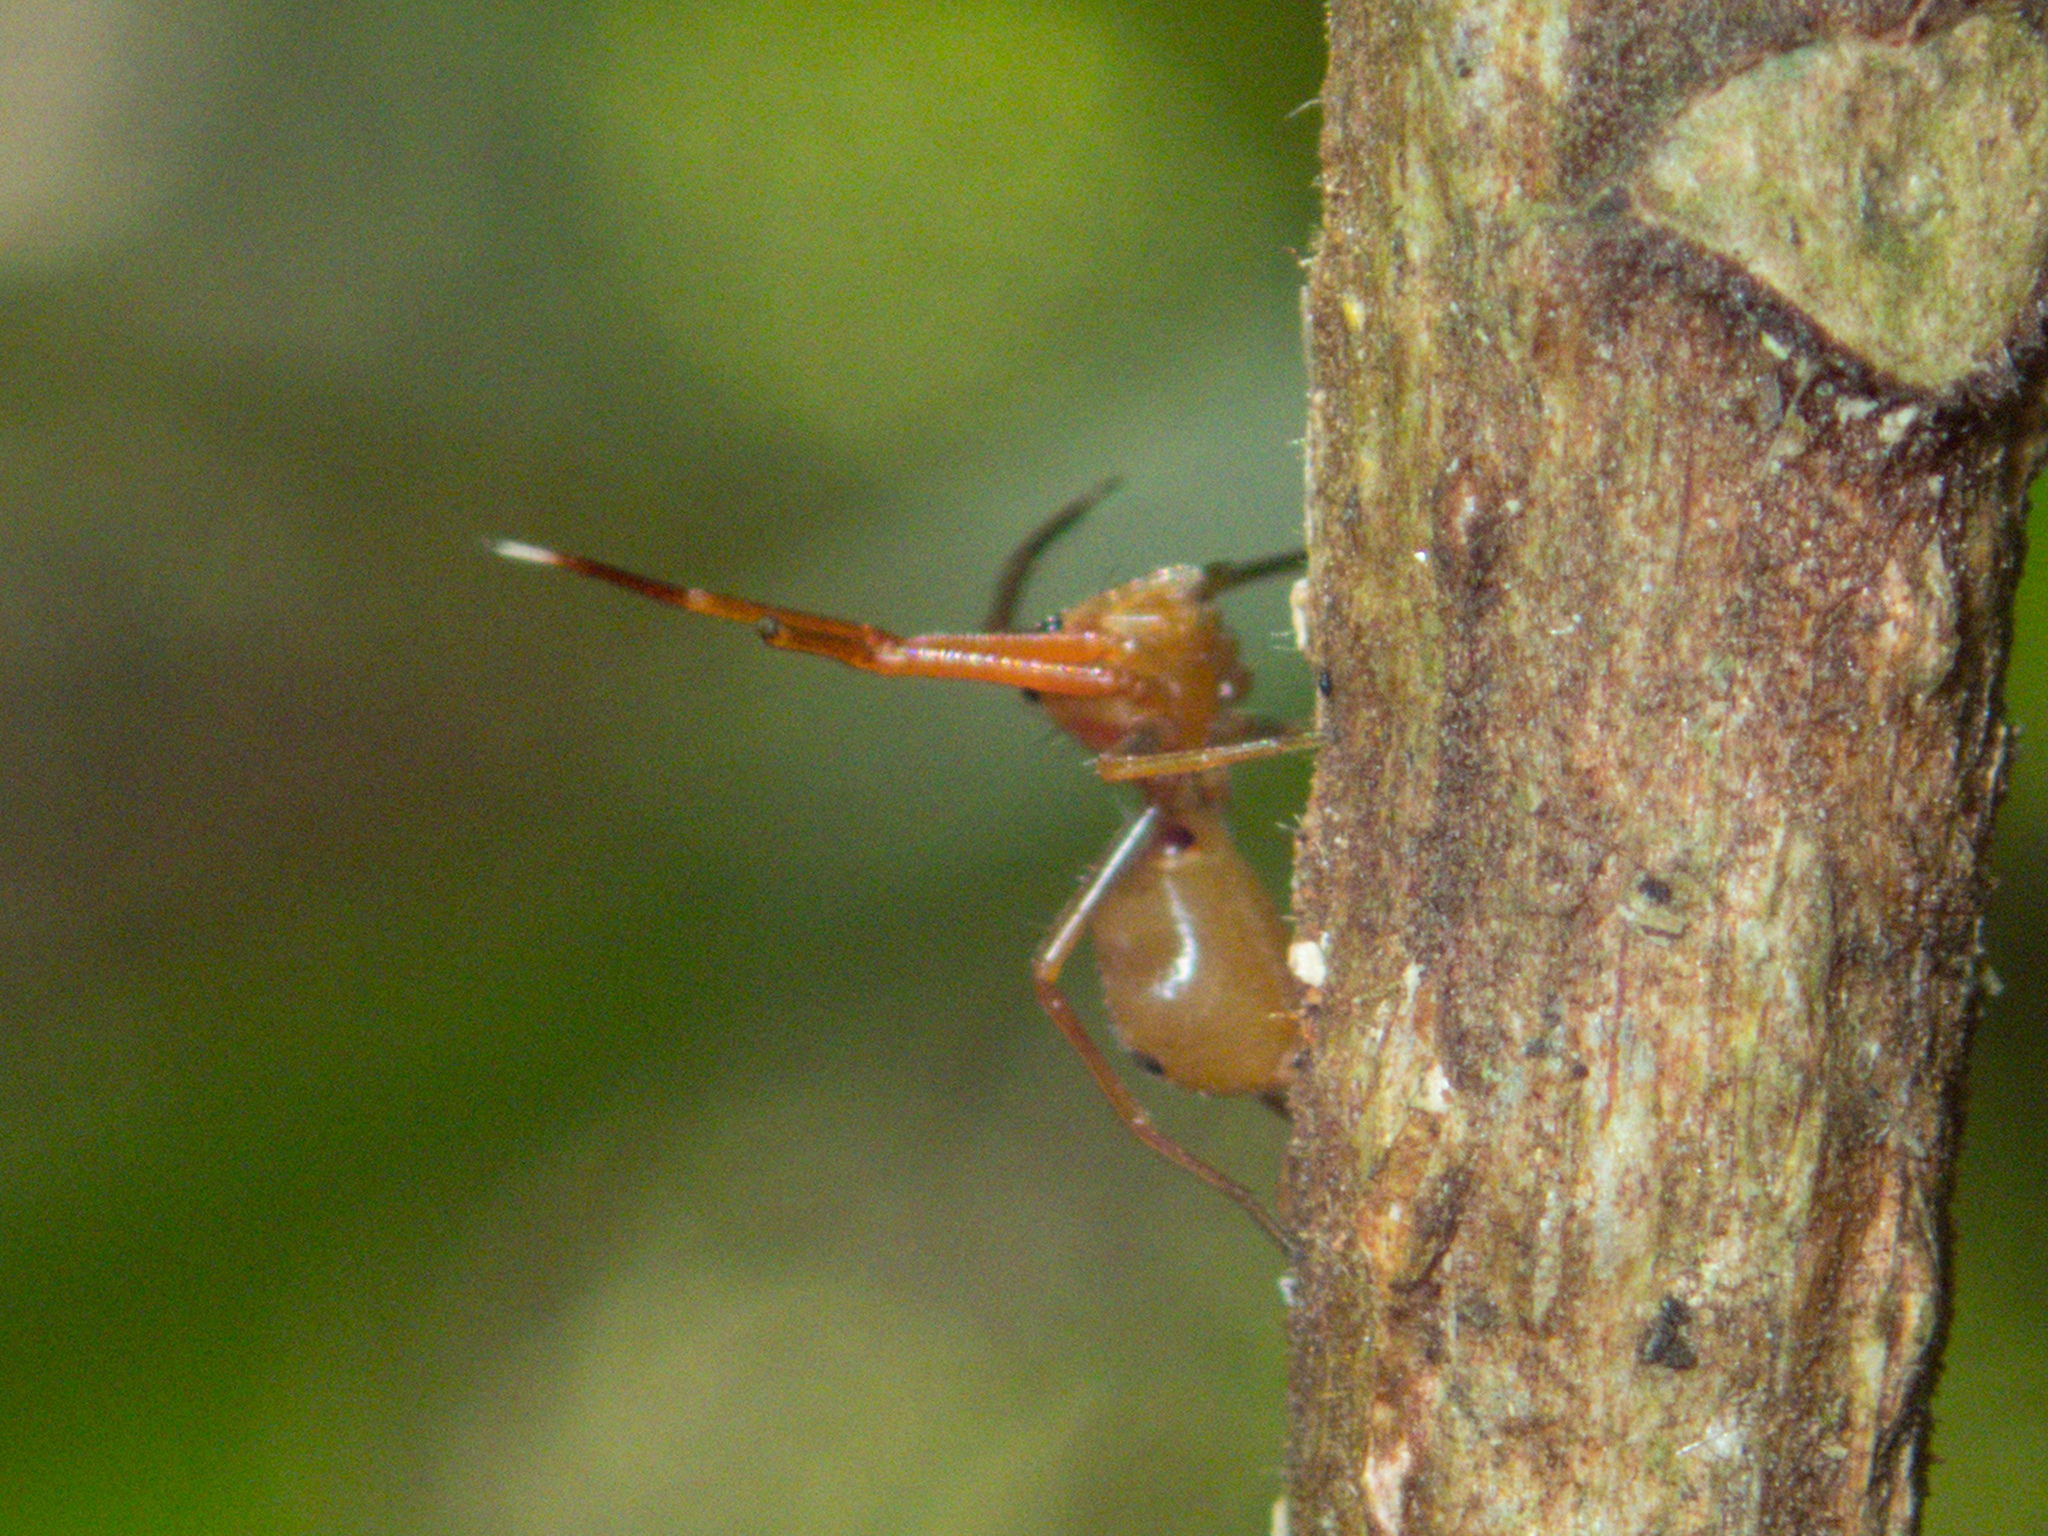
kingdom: Animalia
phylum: Arthropoda
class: Arachnida
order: Araneae
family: Thomisidae
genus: Amyciaea
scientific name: Amyciaea forticeps
